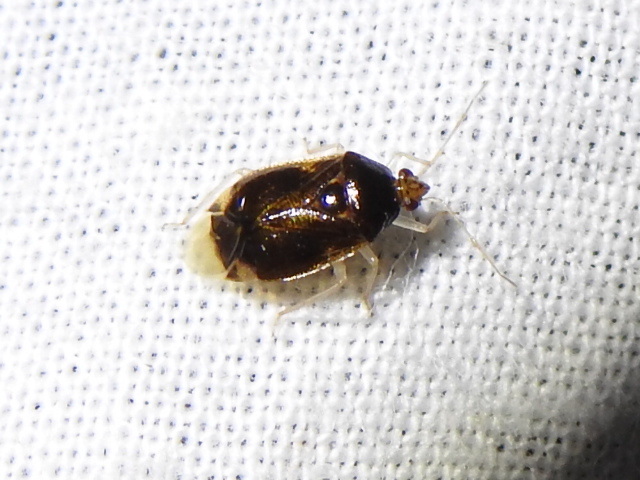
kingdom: Animalia
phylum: Arthropoda
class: Insecta
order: Hemiptera
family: Miridae
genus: Deraeocoris
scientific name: Deraeocoris davisi
